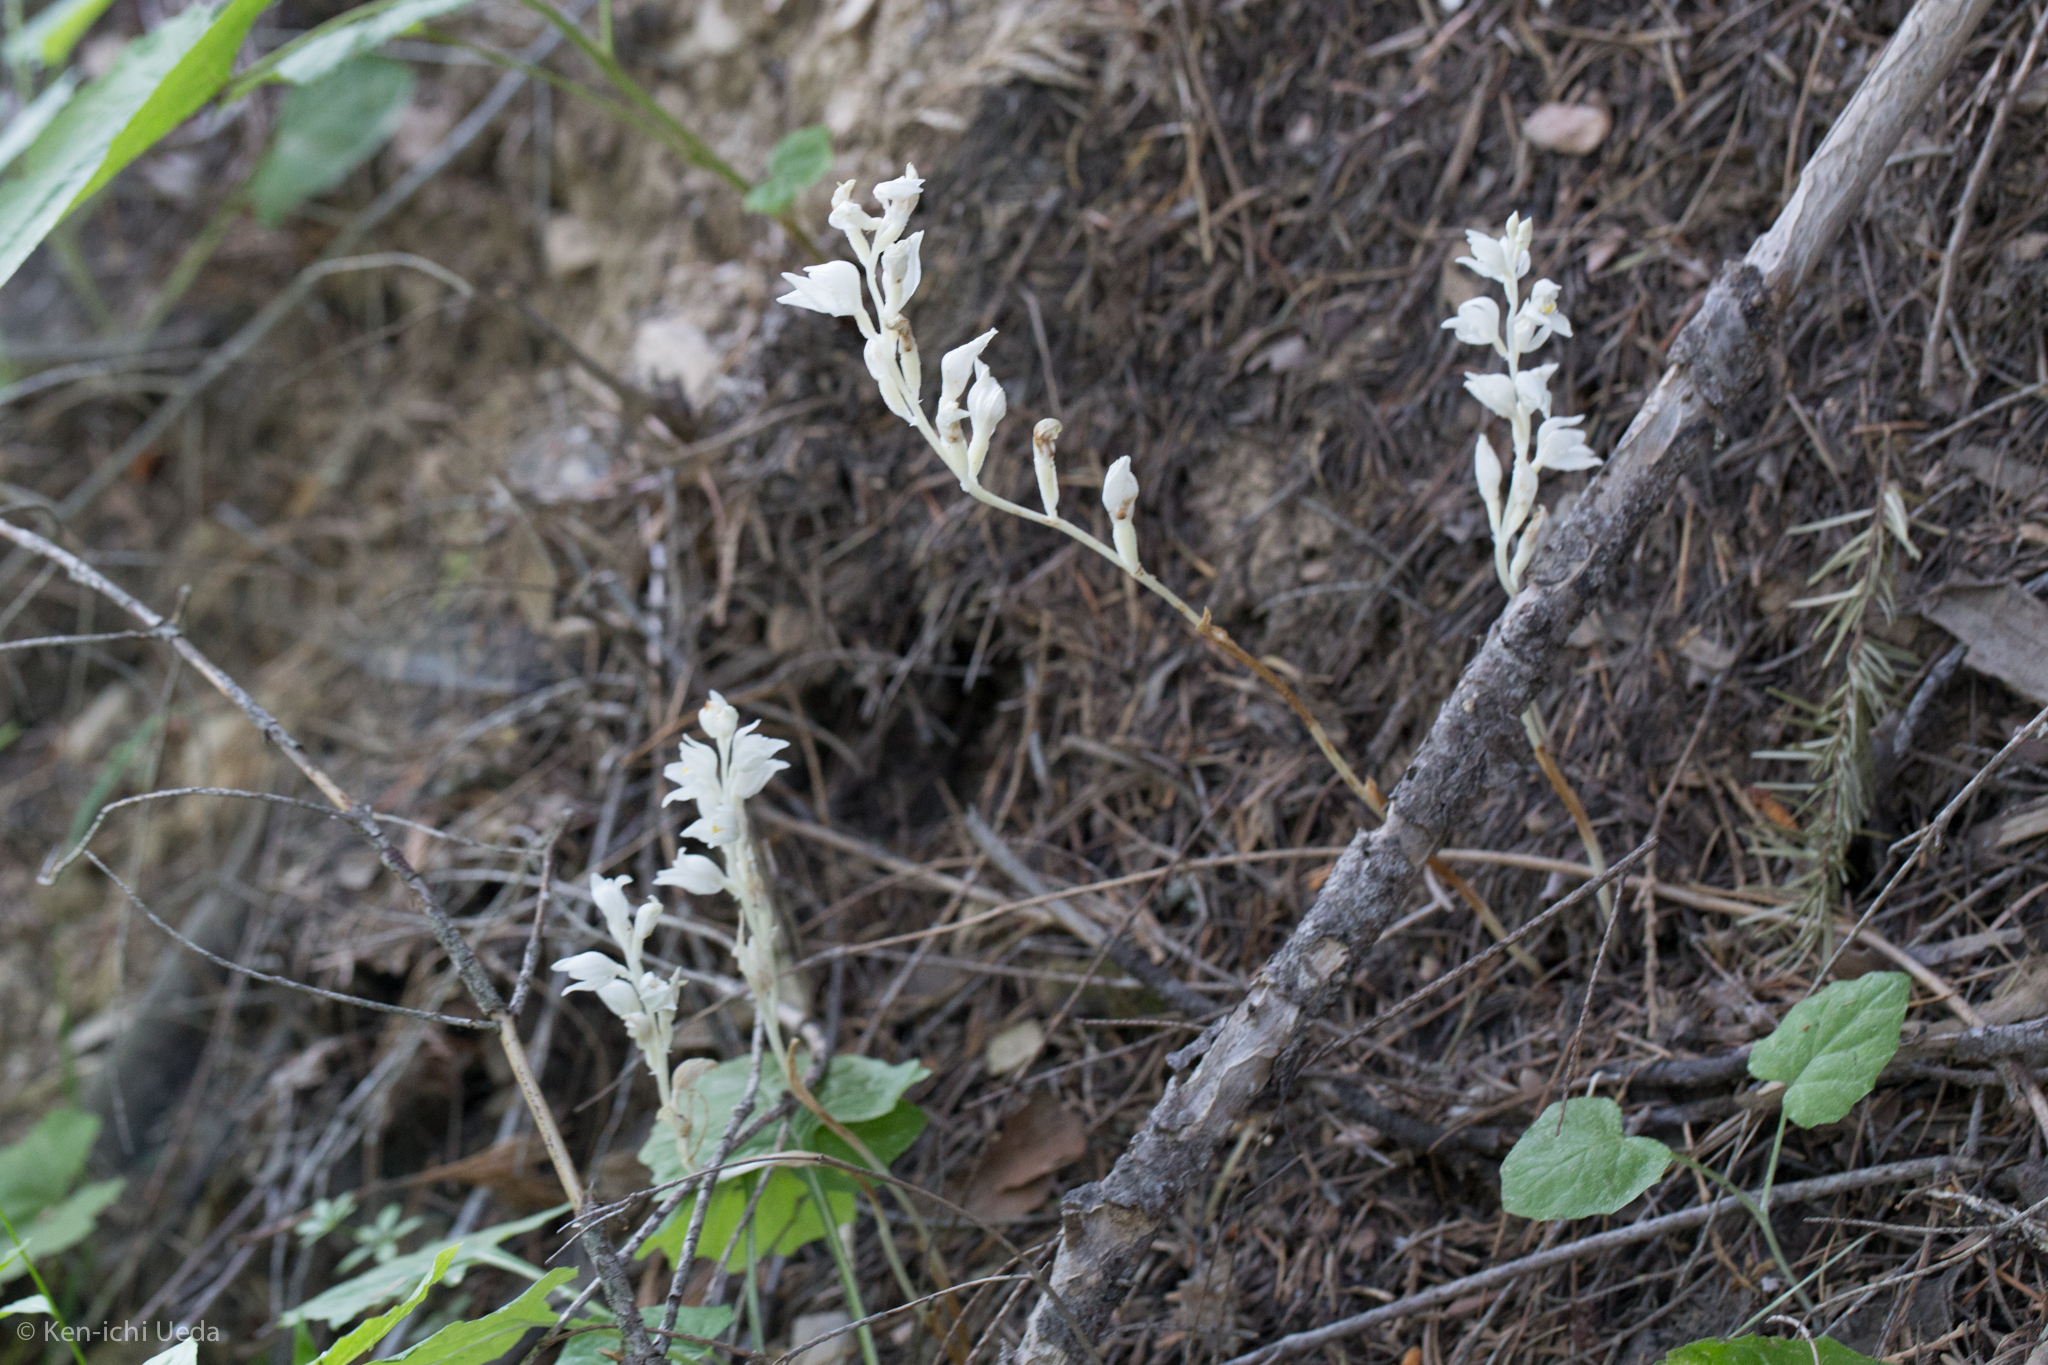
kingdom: Plantae
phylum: Tracheophyta
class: Liliopsida
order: Asparagales
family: Orchidaceae
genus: Cephalanthera
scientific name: Cephalanthera austiniae
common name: Phantom orchid
